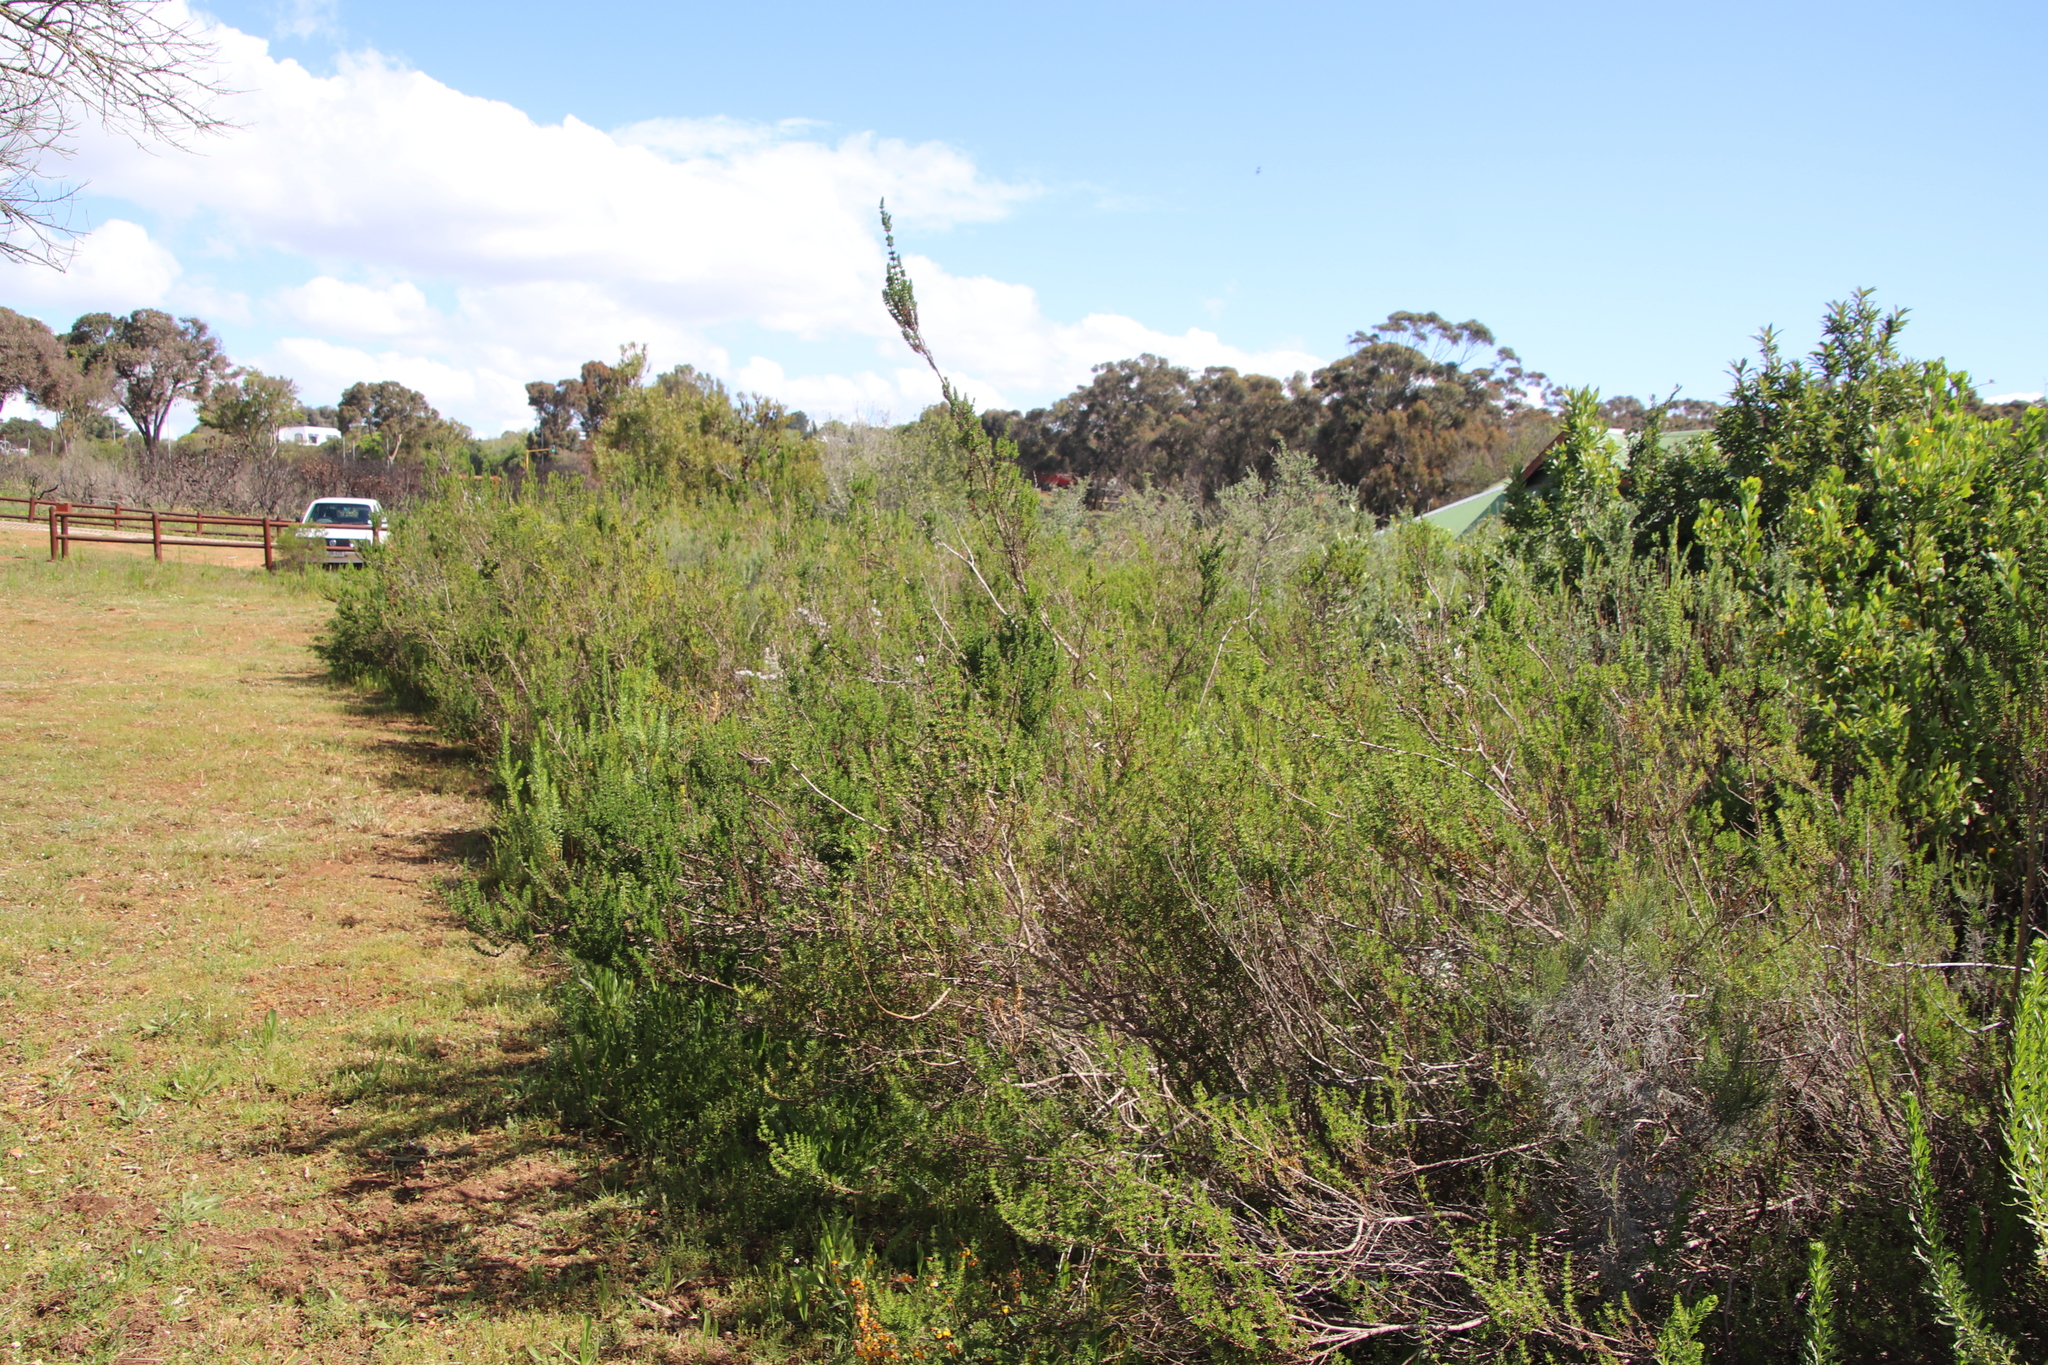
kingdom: Plantae
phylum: Tracheophyta
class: Magnoliopsida
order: Gentianales
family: Rubiaceae
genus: Anthospermum
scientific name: Anthospermum spathulatum
